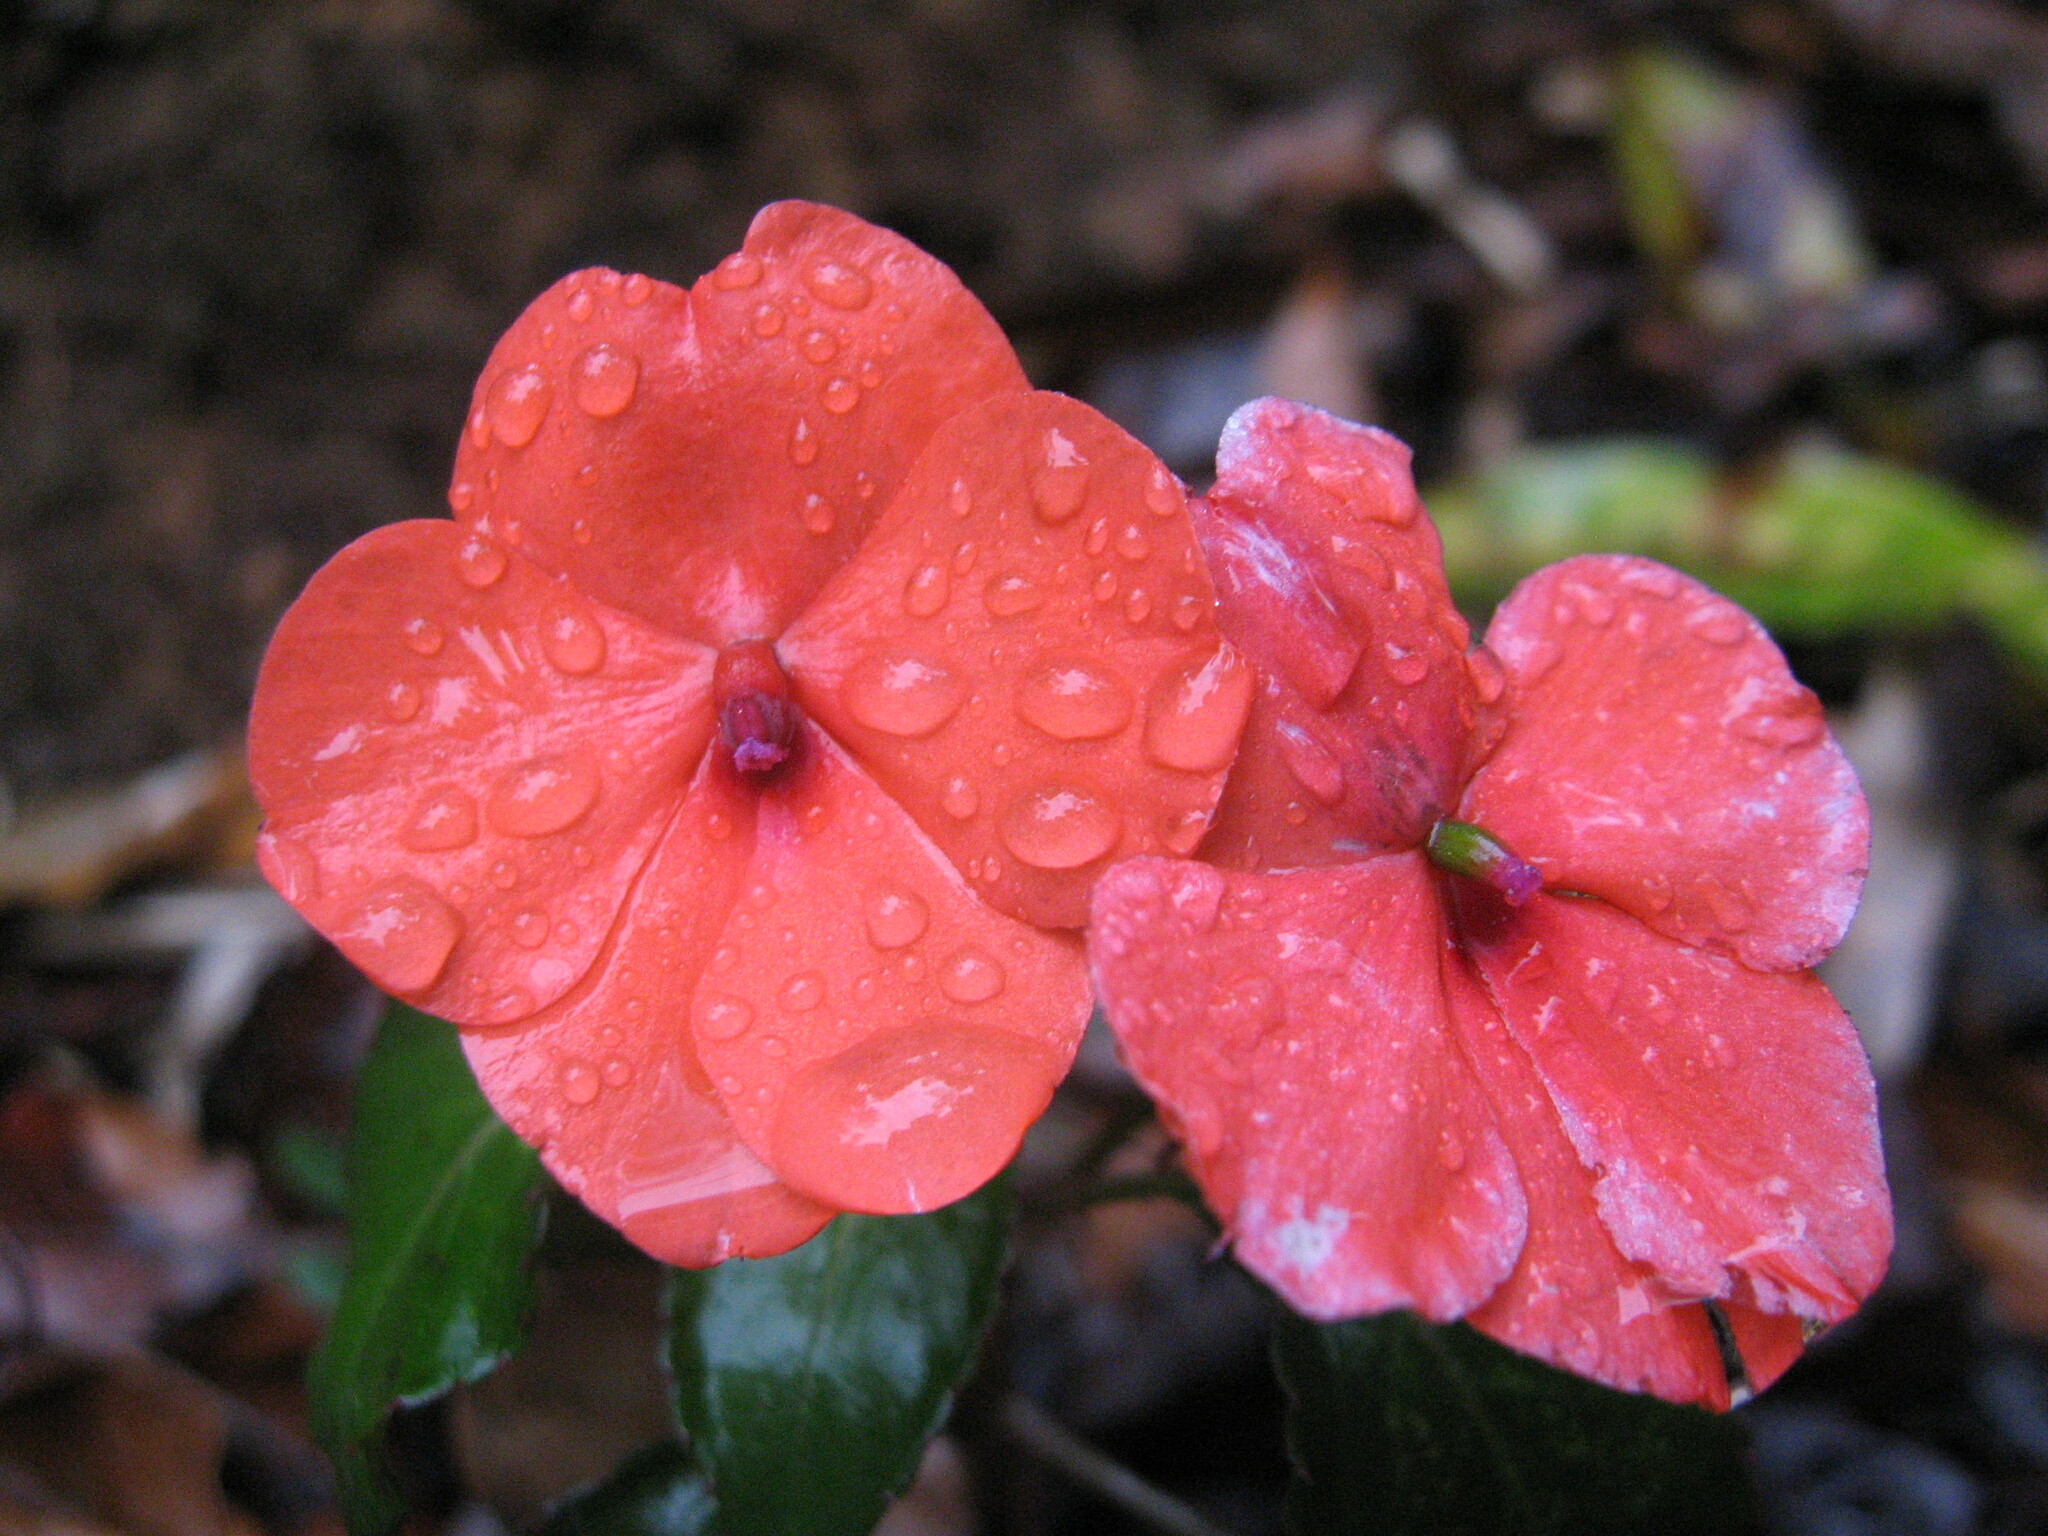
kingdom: Plantae
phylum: Tracheophyta
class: Magnoliopsida
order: Ericales
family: Balsaminaceae
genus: Impatiens
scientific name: Impatiens walleriana
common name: Buzzy lizzy
